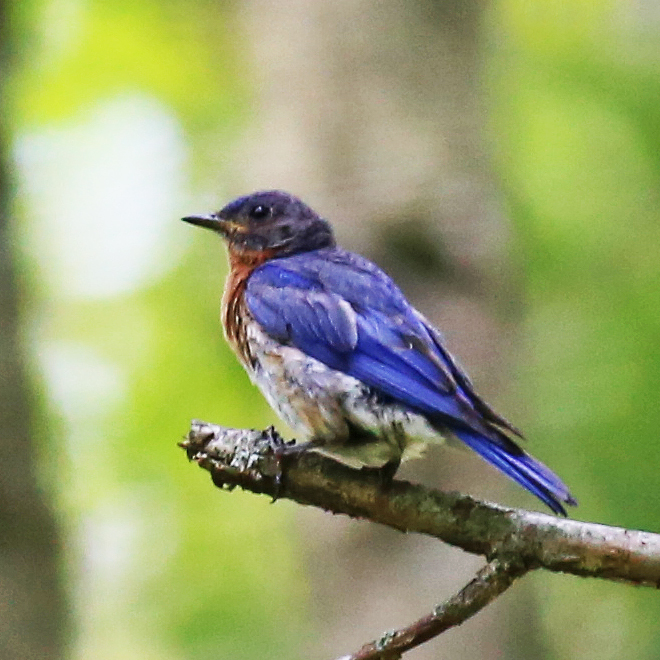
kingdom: Animalia
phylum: Chordata
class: Aves
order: Passeriformes
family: Turdidae
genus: Sialia
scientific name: Sialia sialis
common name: Eastern bluebird
